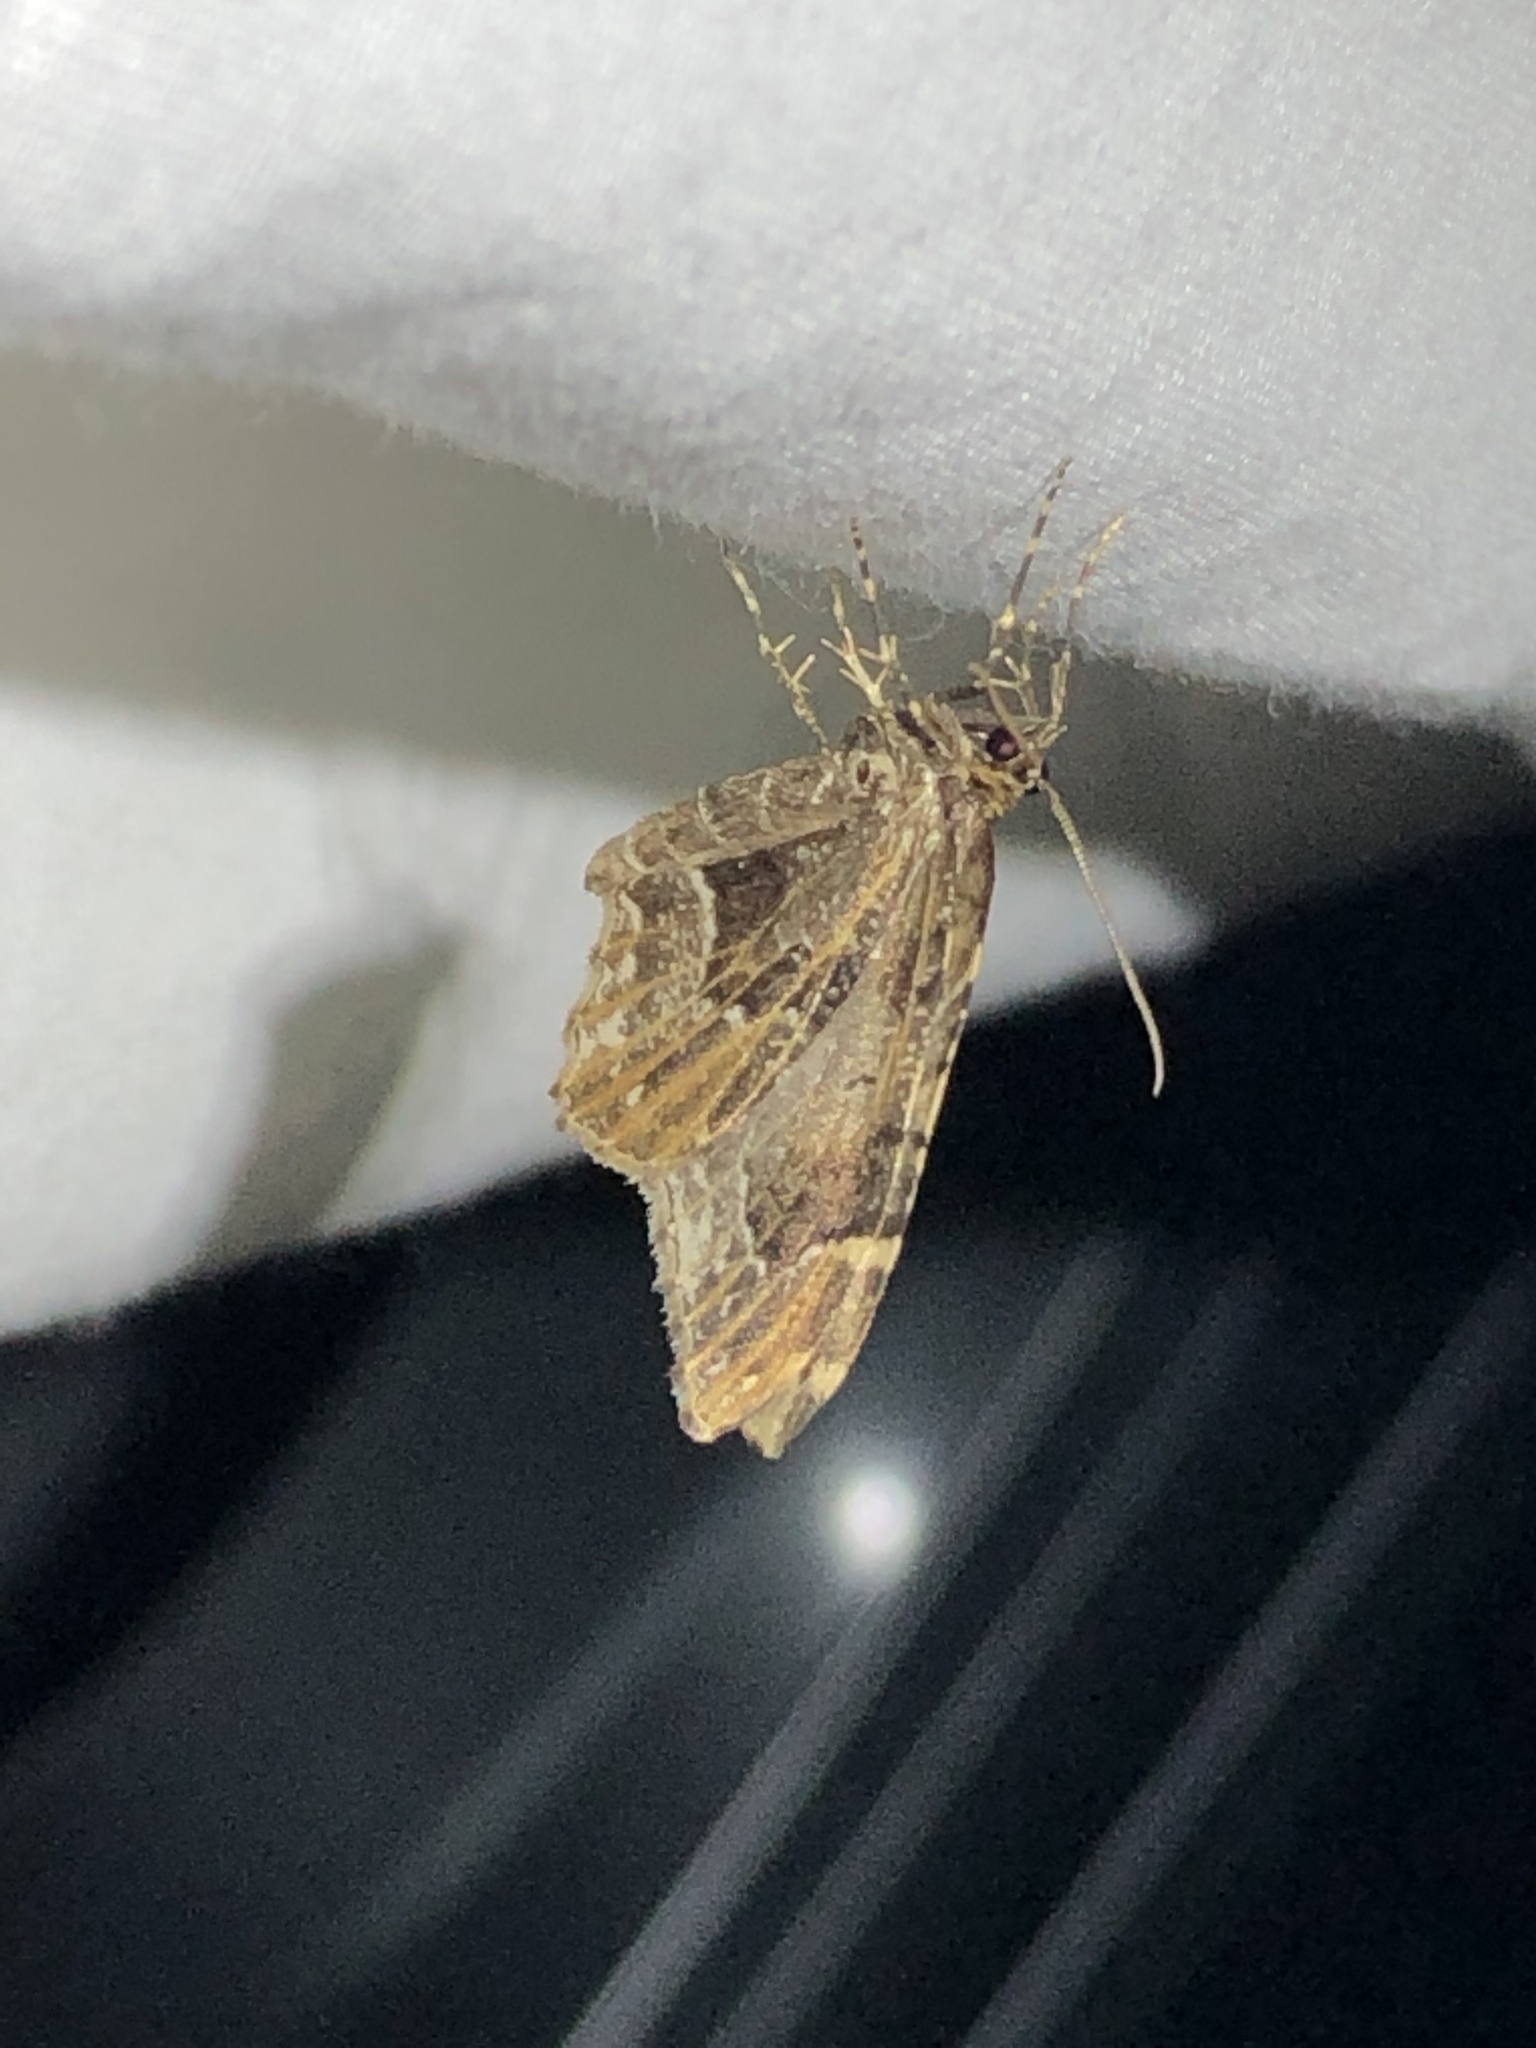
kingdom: Animalia
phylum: Arthropoda
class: Insecta
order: Lepidoptera
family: Geometridae
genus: Ceratodalia
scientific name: Ceratodalia gueneata
